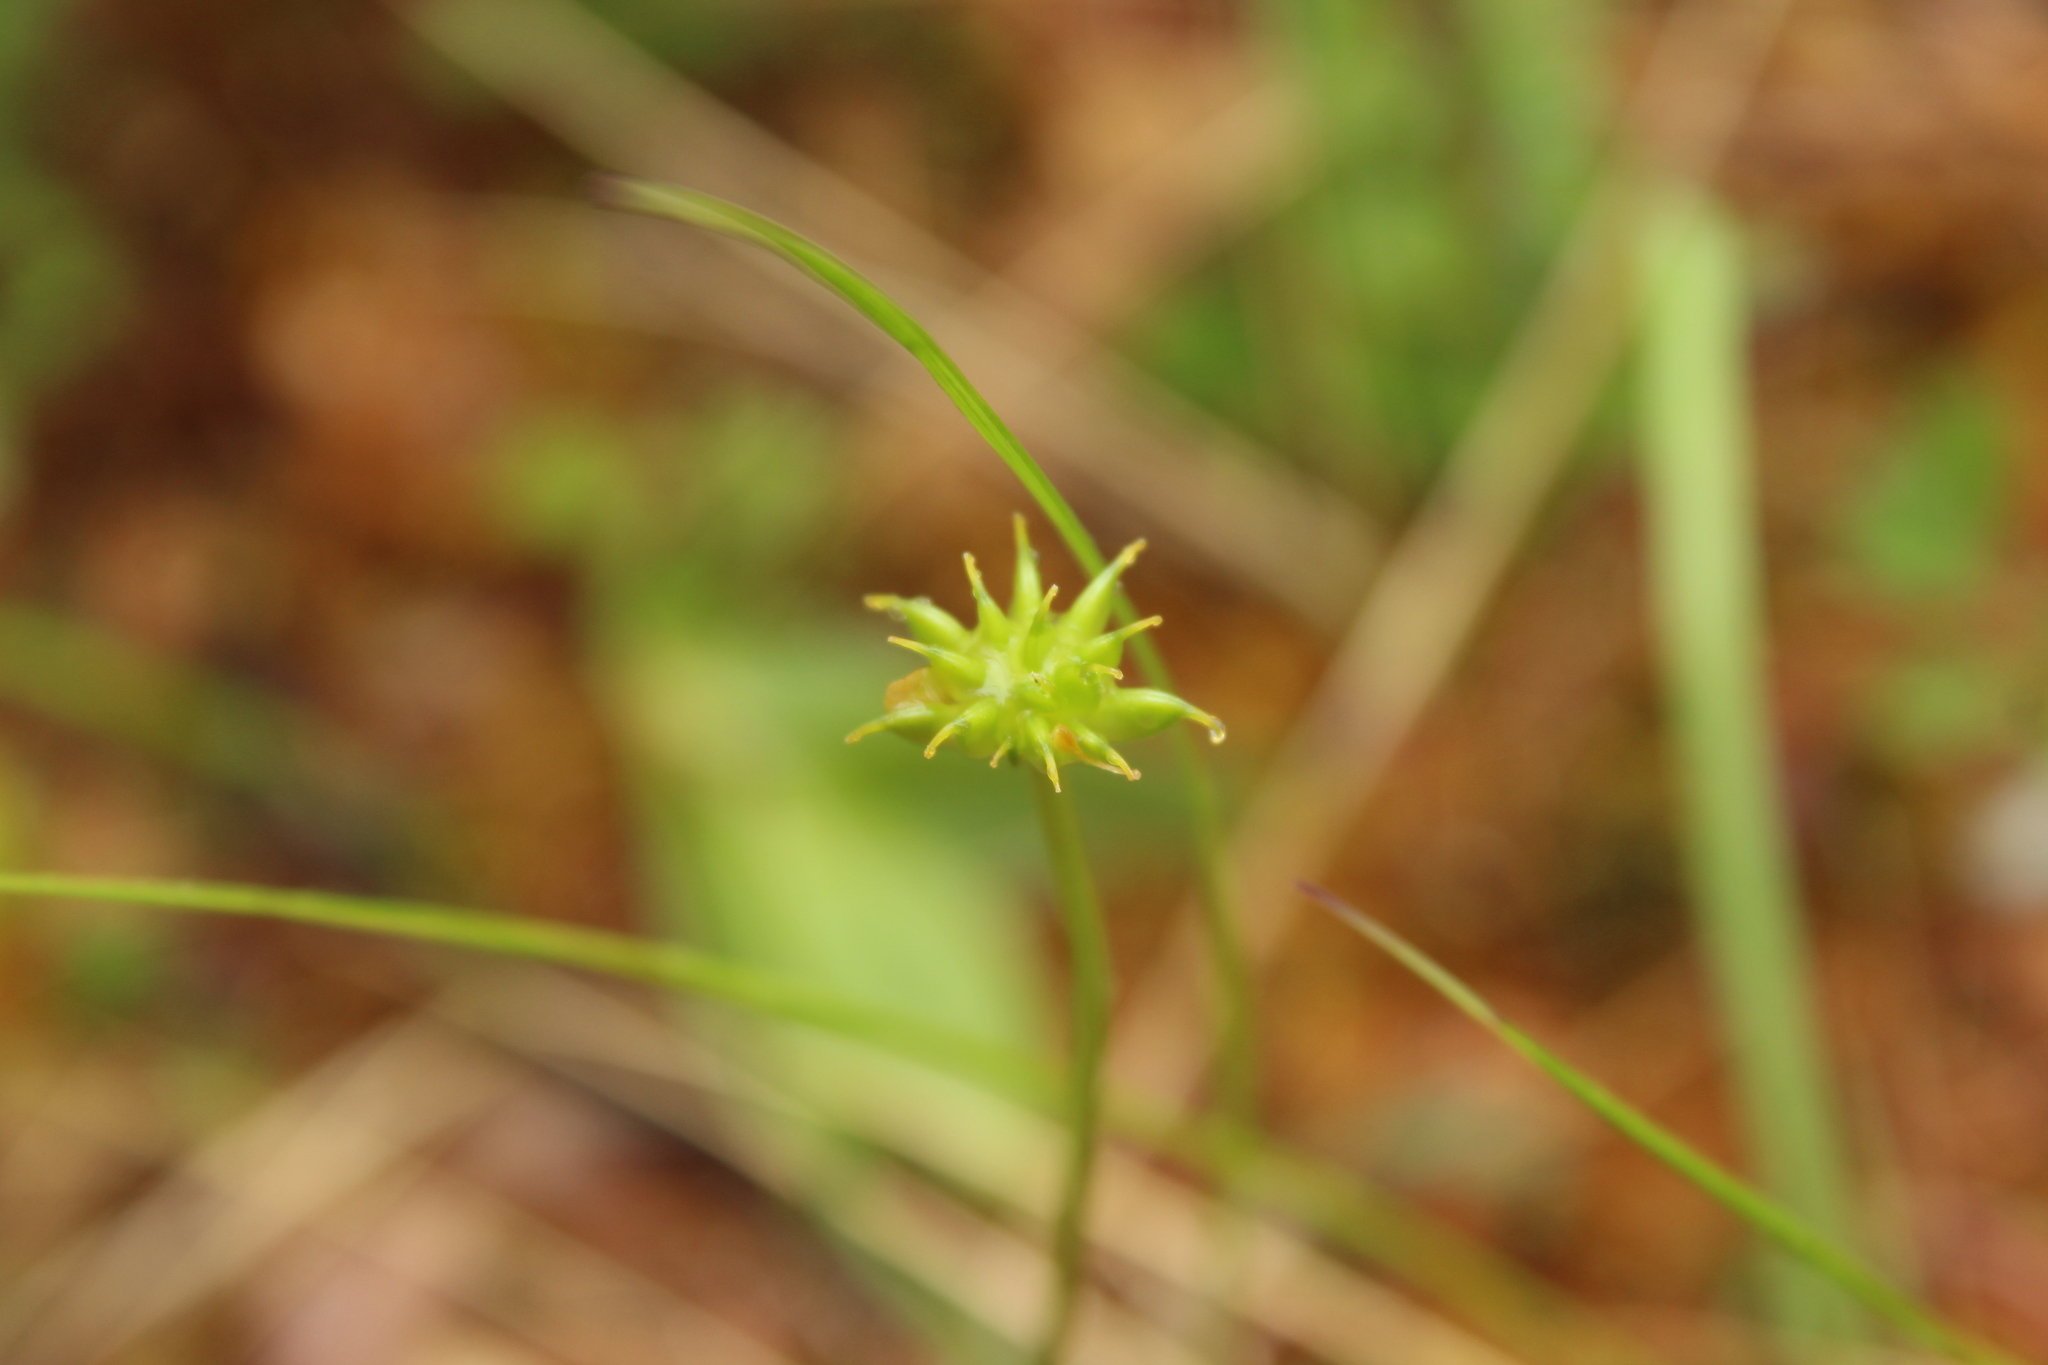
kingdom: Plantae
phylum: Tracheophyta
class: Magnoliopsida
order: Ranunculales
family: Ranunculaceae
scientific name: Ranunculaceae
